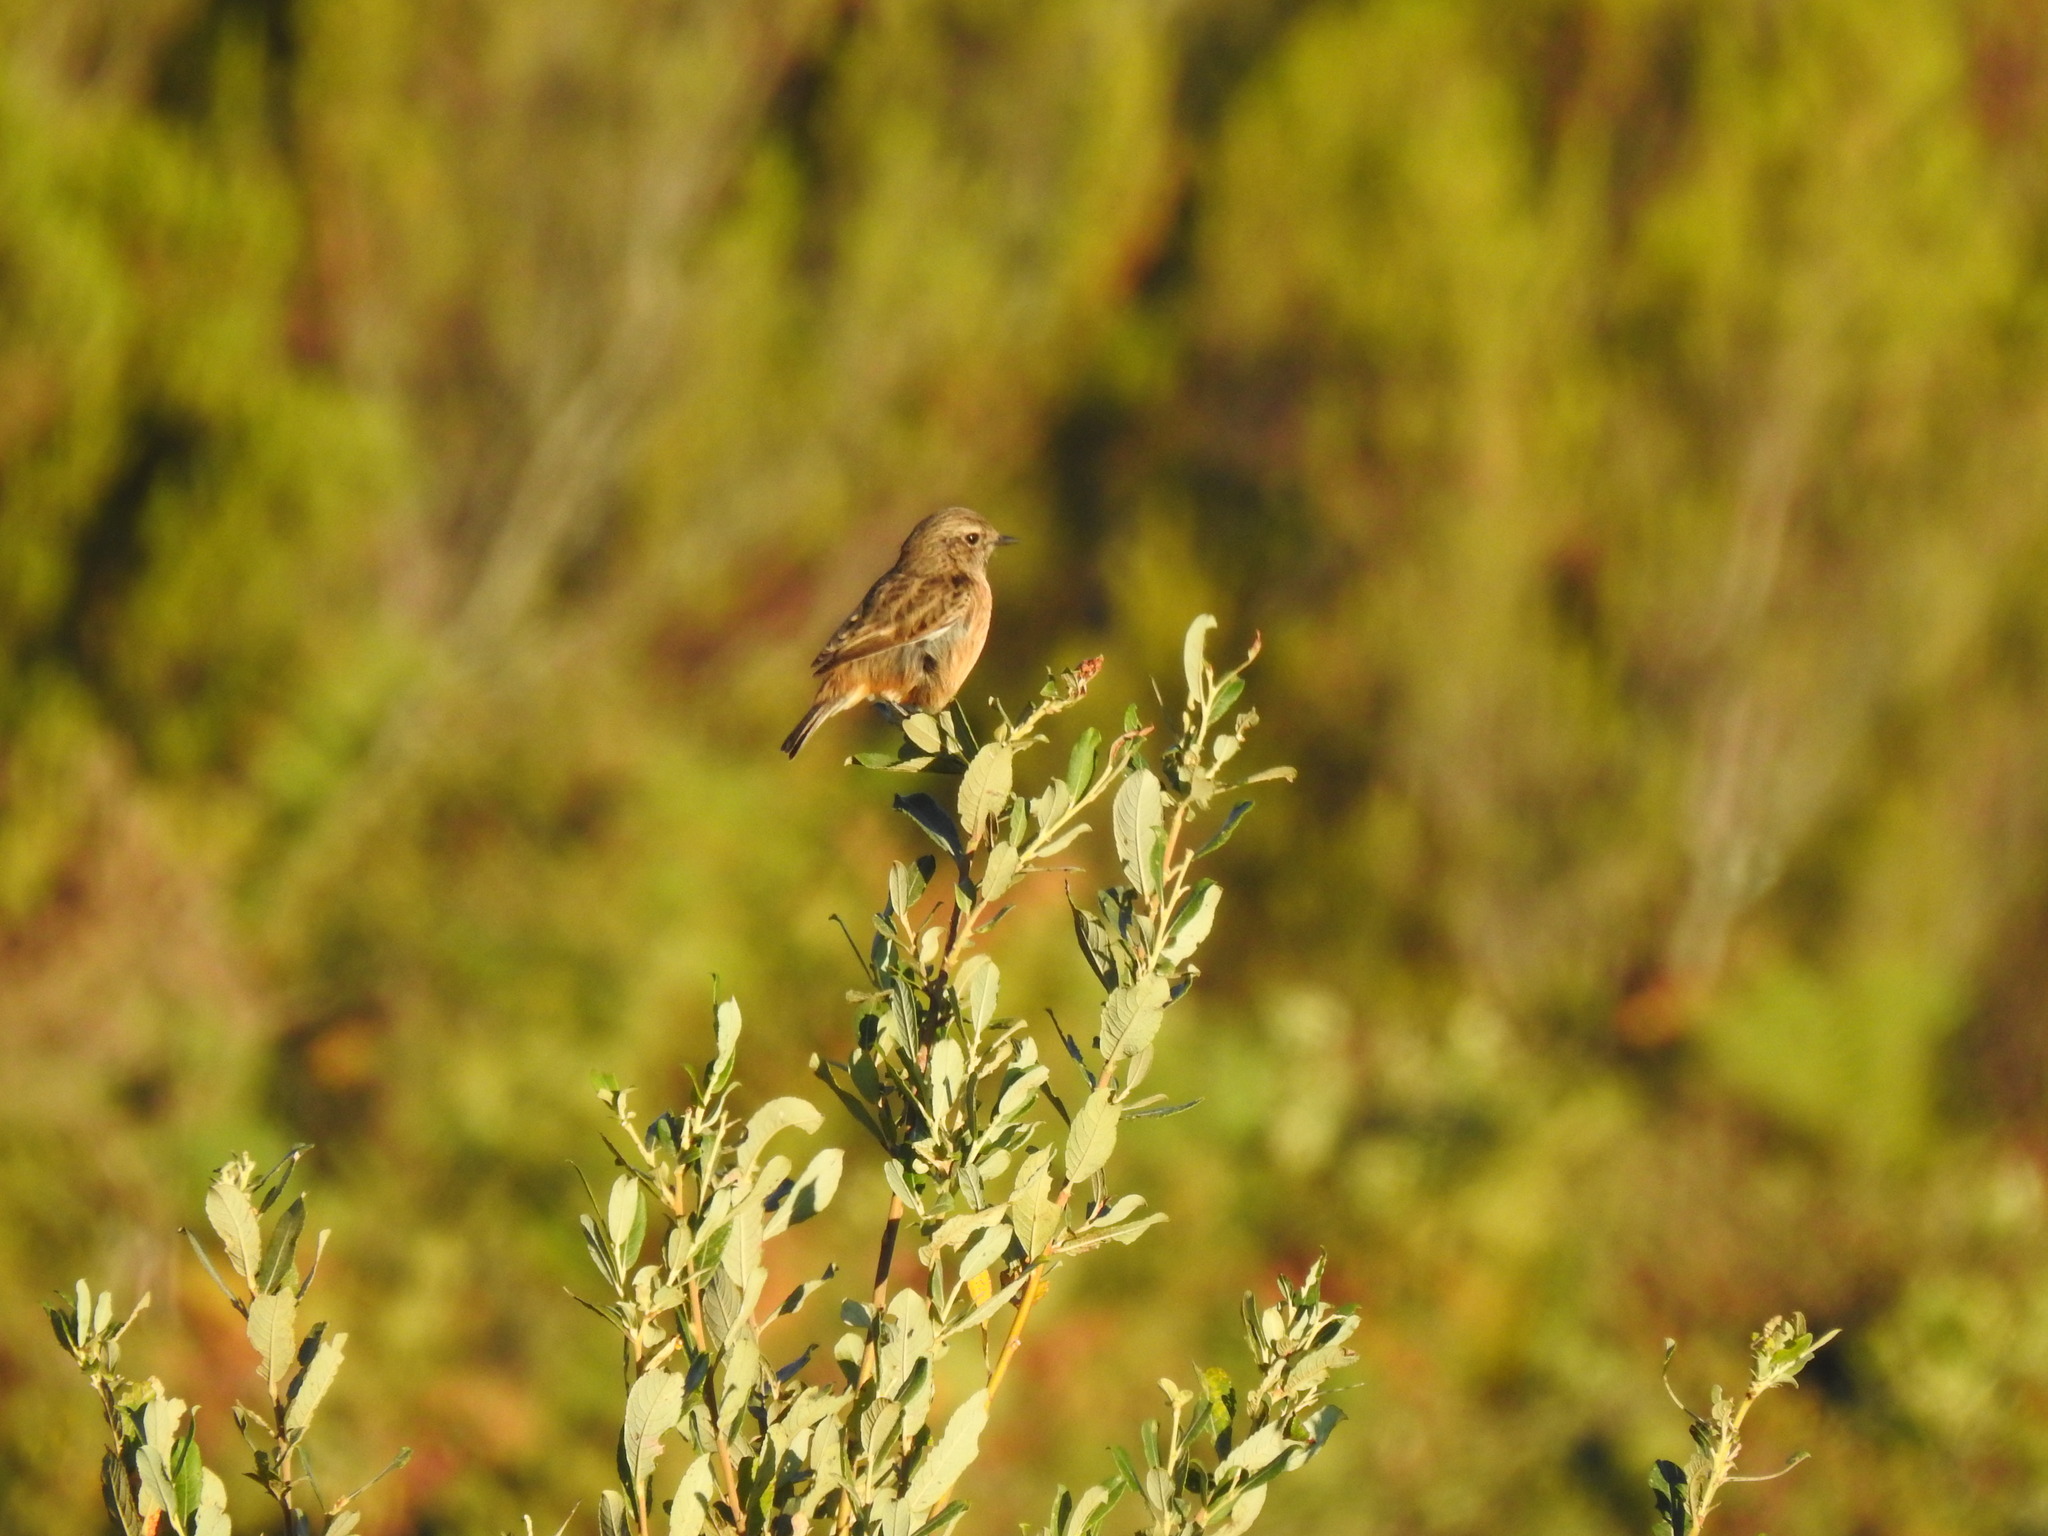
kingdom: Animalia
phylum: Chordata
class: Aves
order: Passeriformes
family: Muscicapidae
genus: Saxicola
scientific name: Saxicola rubicola
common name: European stonechat
